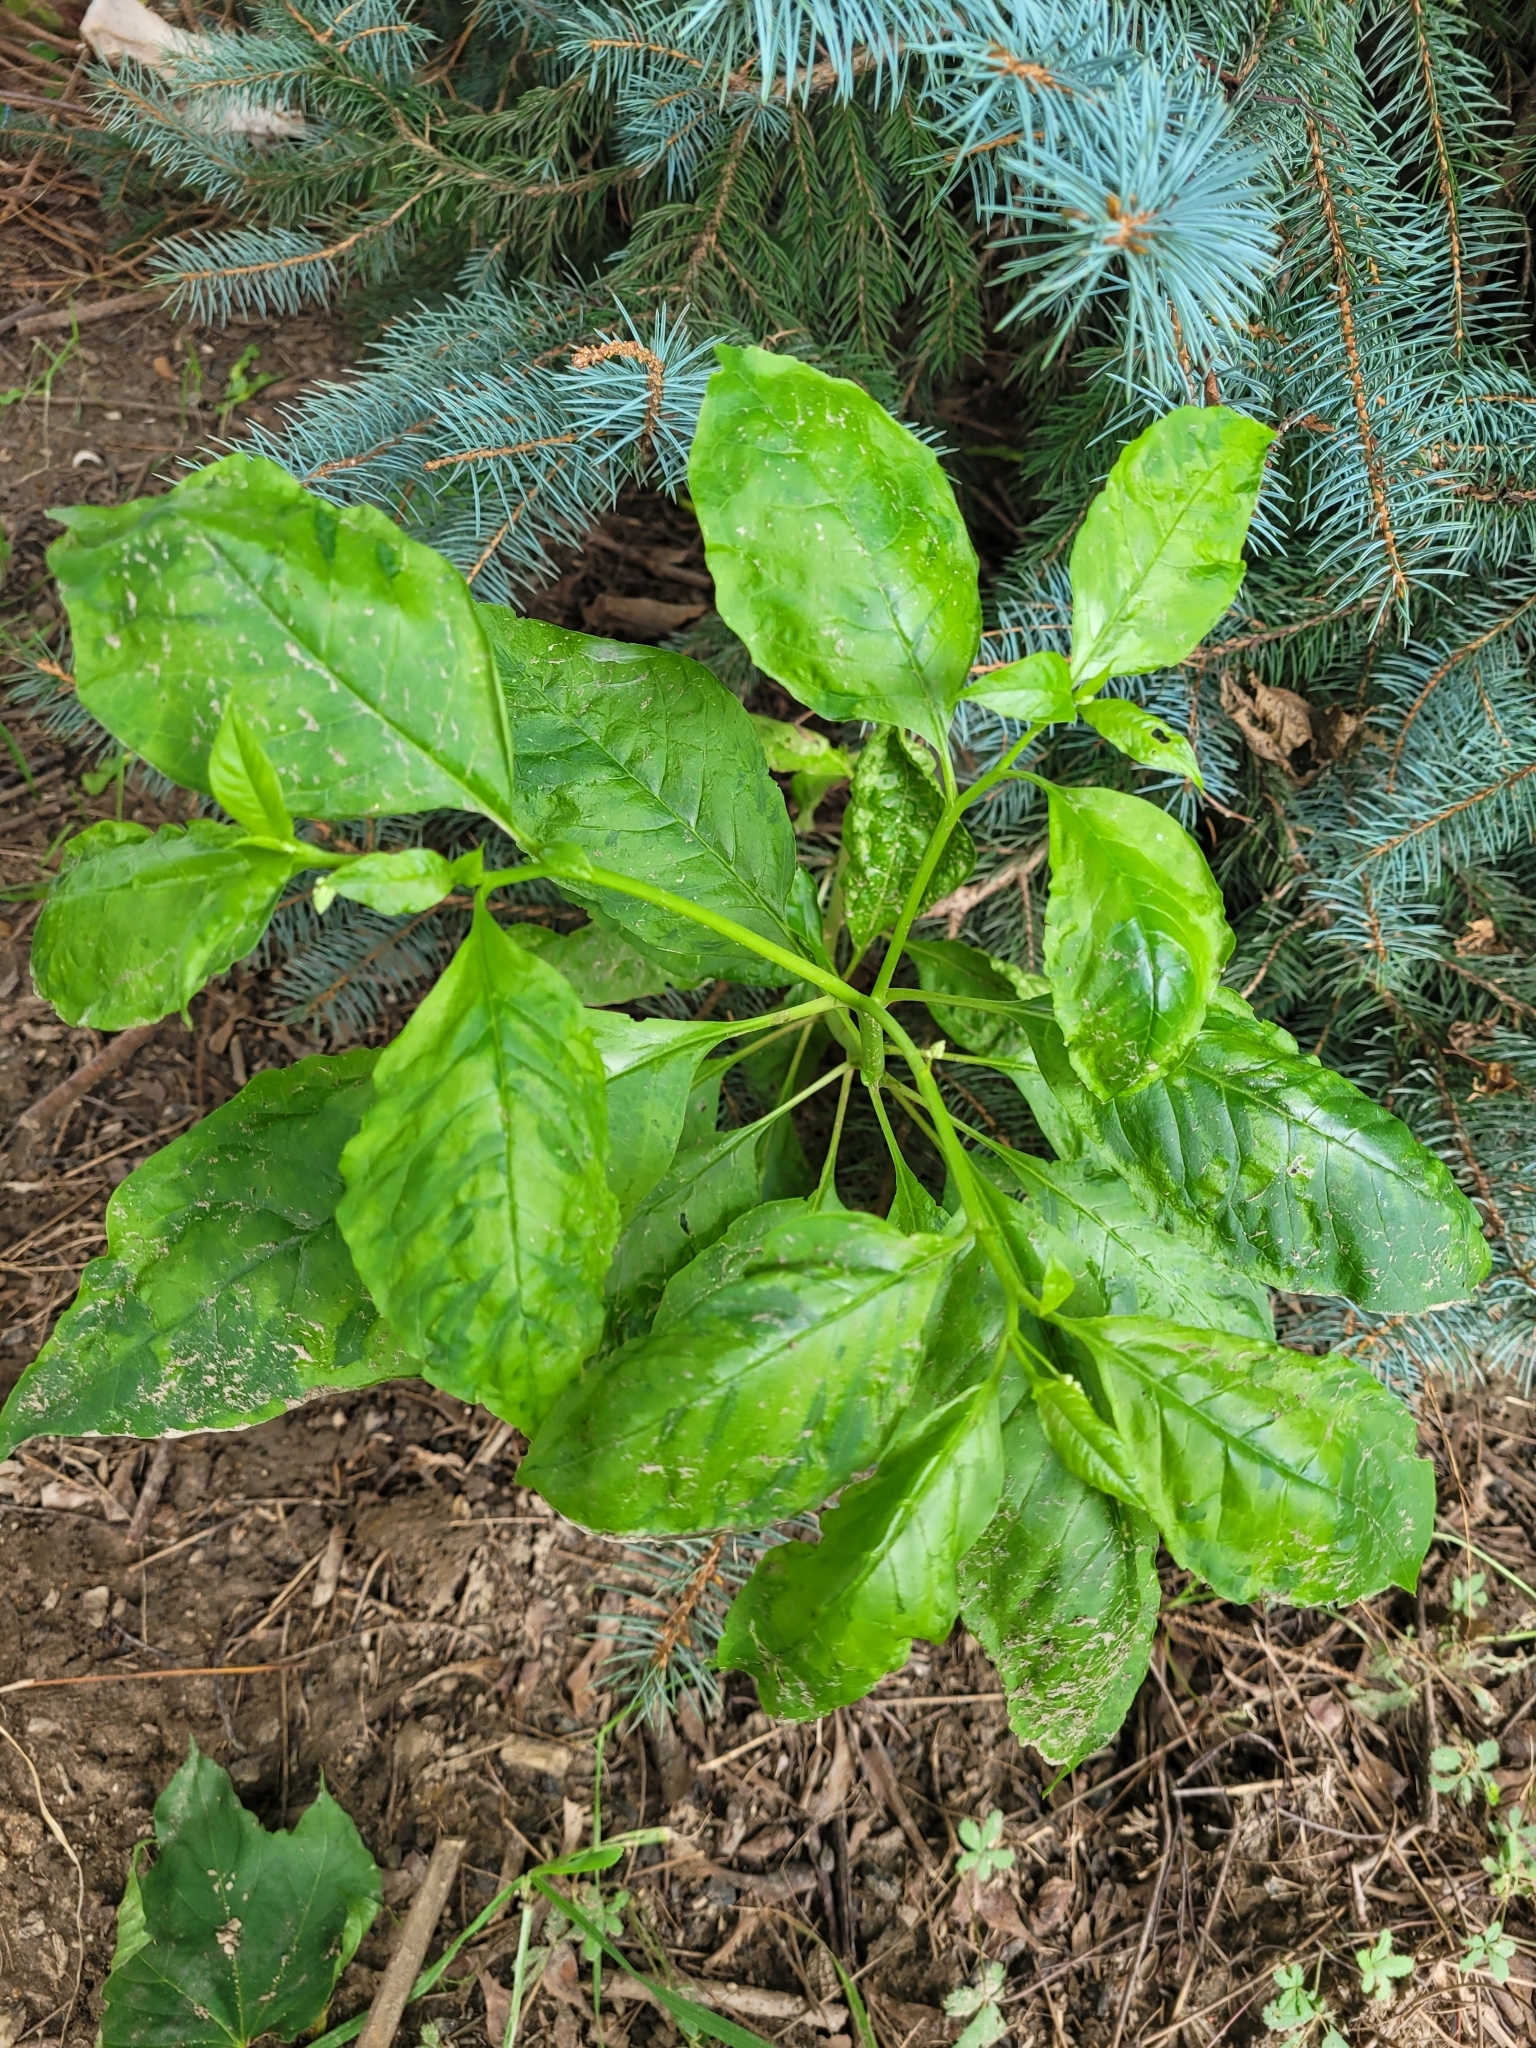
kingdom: Plantae
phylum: Tracheophyta
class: Magnoliopsida
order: Caryophyllales
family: Phytolaccaceae
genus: Phytolacca
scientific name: Phytolacca americana
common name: American pokeweed
